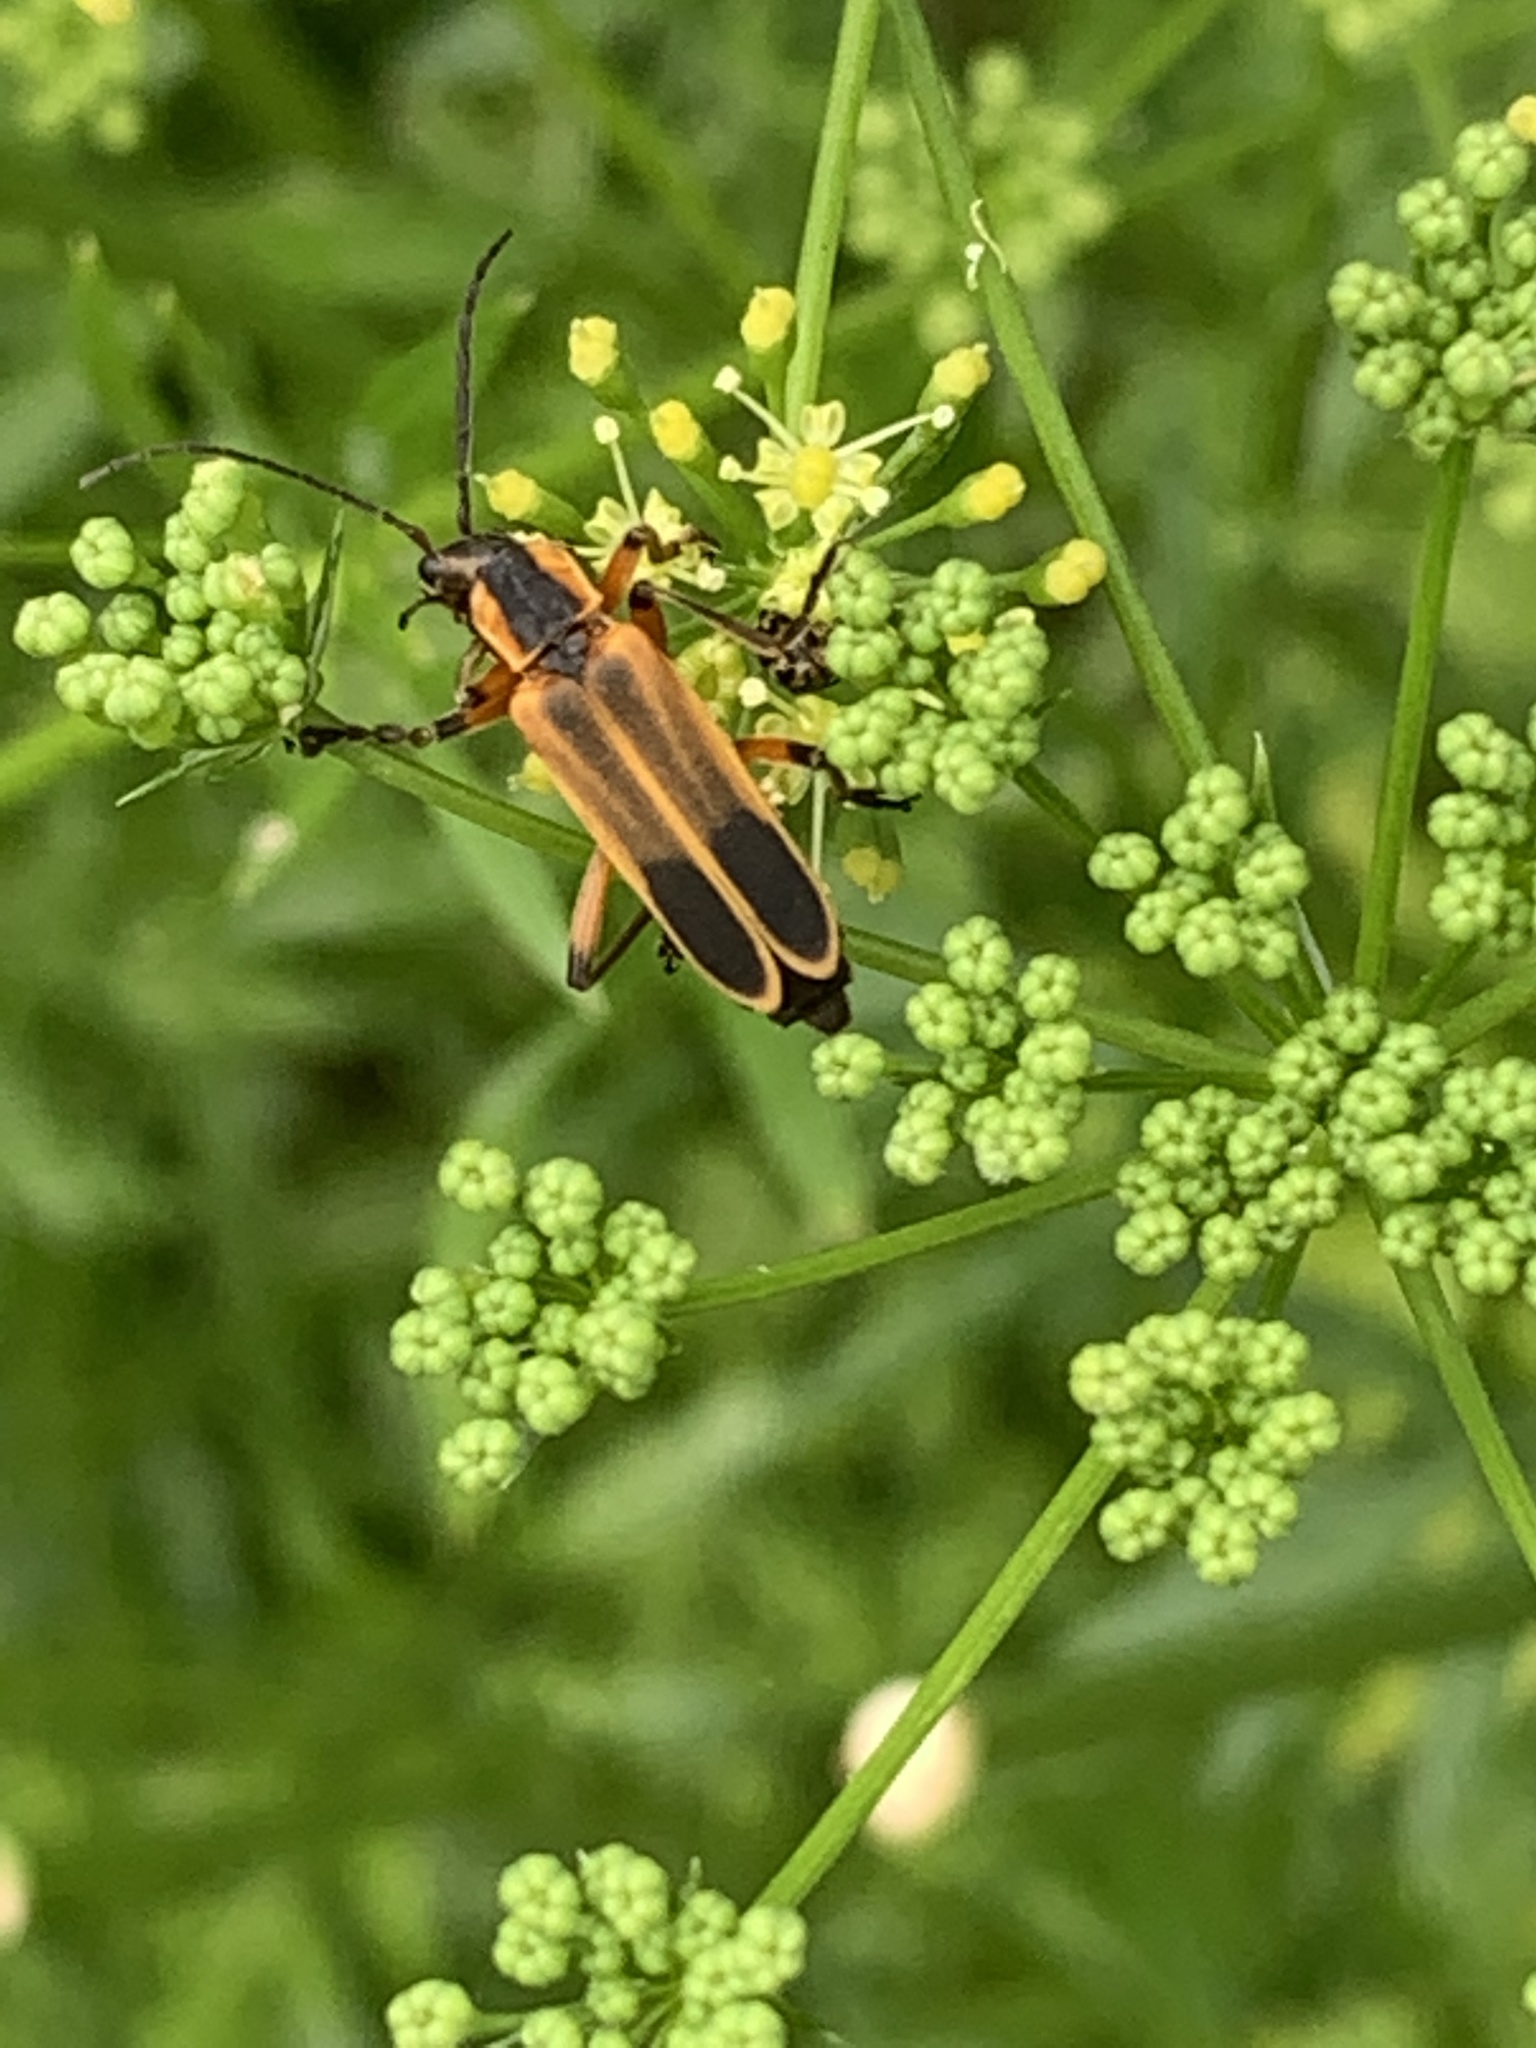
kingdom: Animalia
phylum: Arthropoda
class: Insecta
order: Coleoptera
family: Cantharidae
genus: Chauliognathus
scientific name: Chauliognathus marginatus
